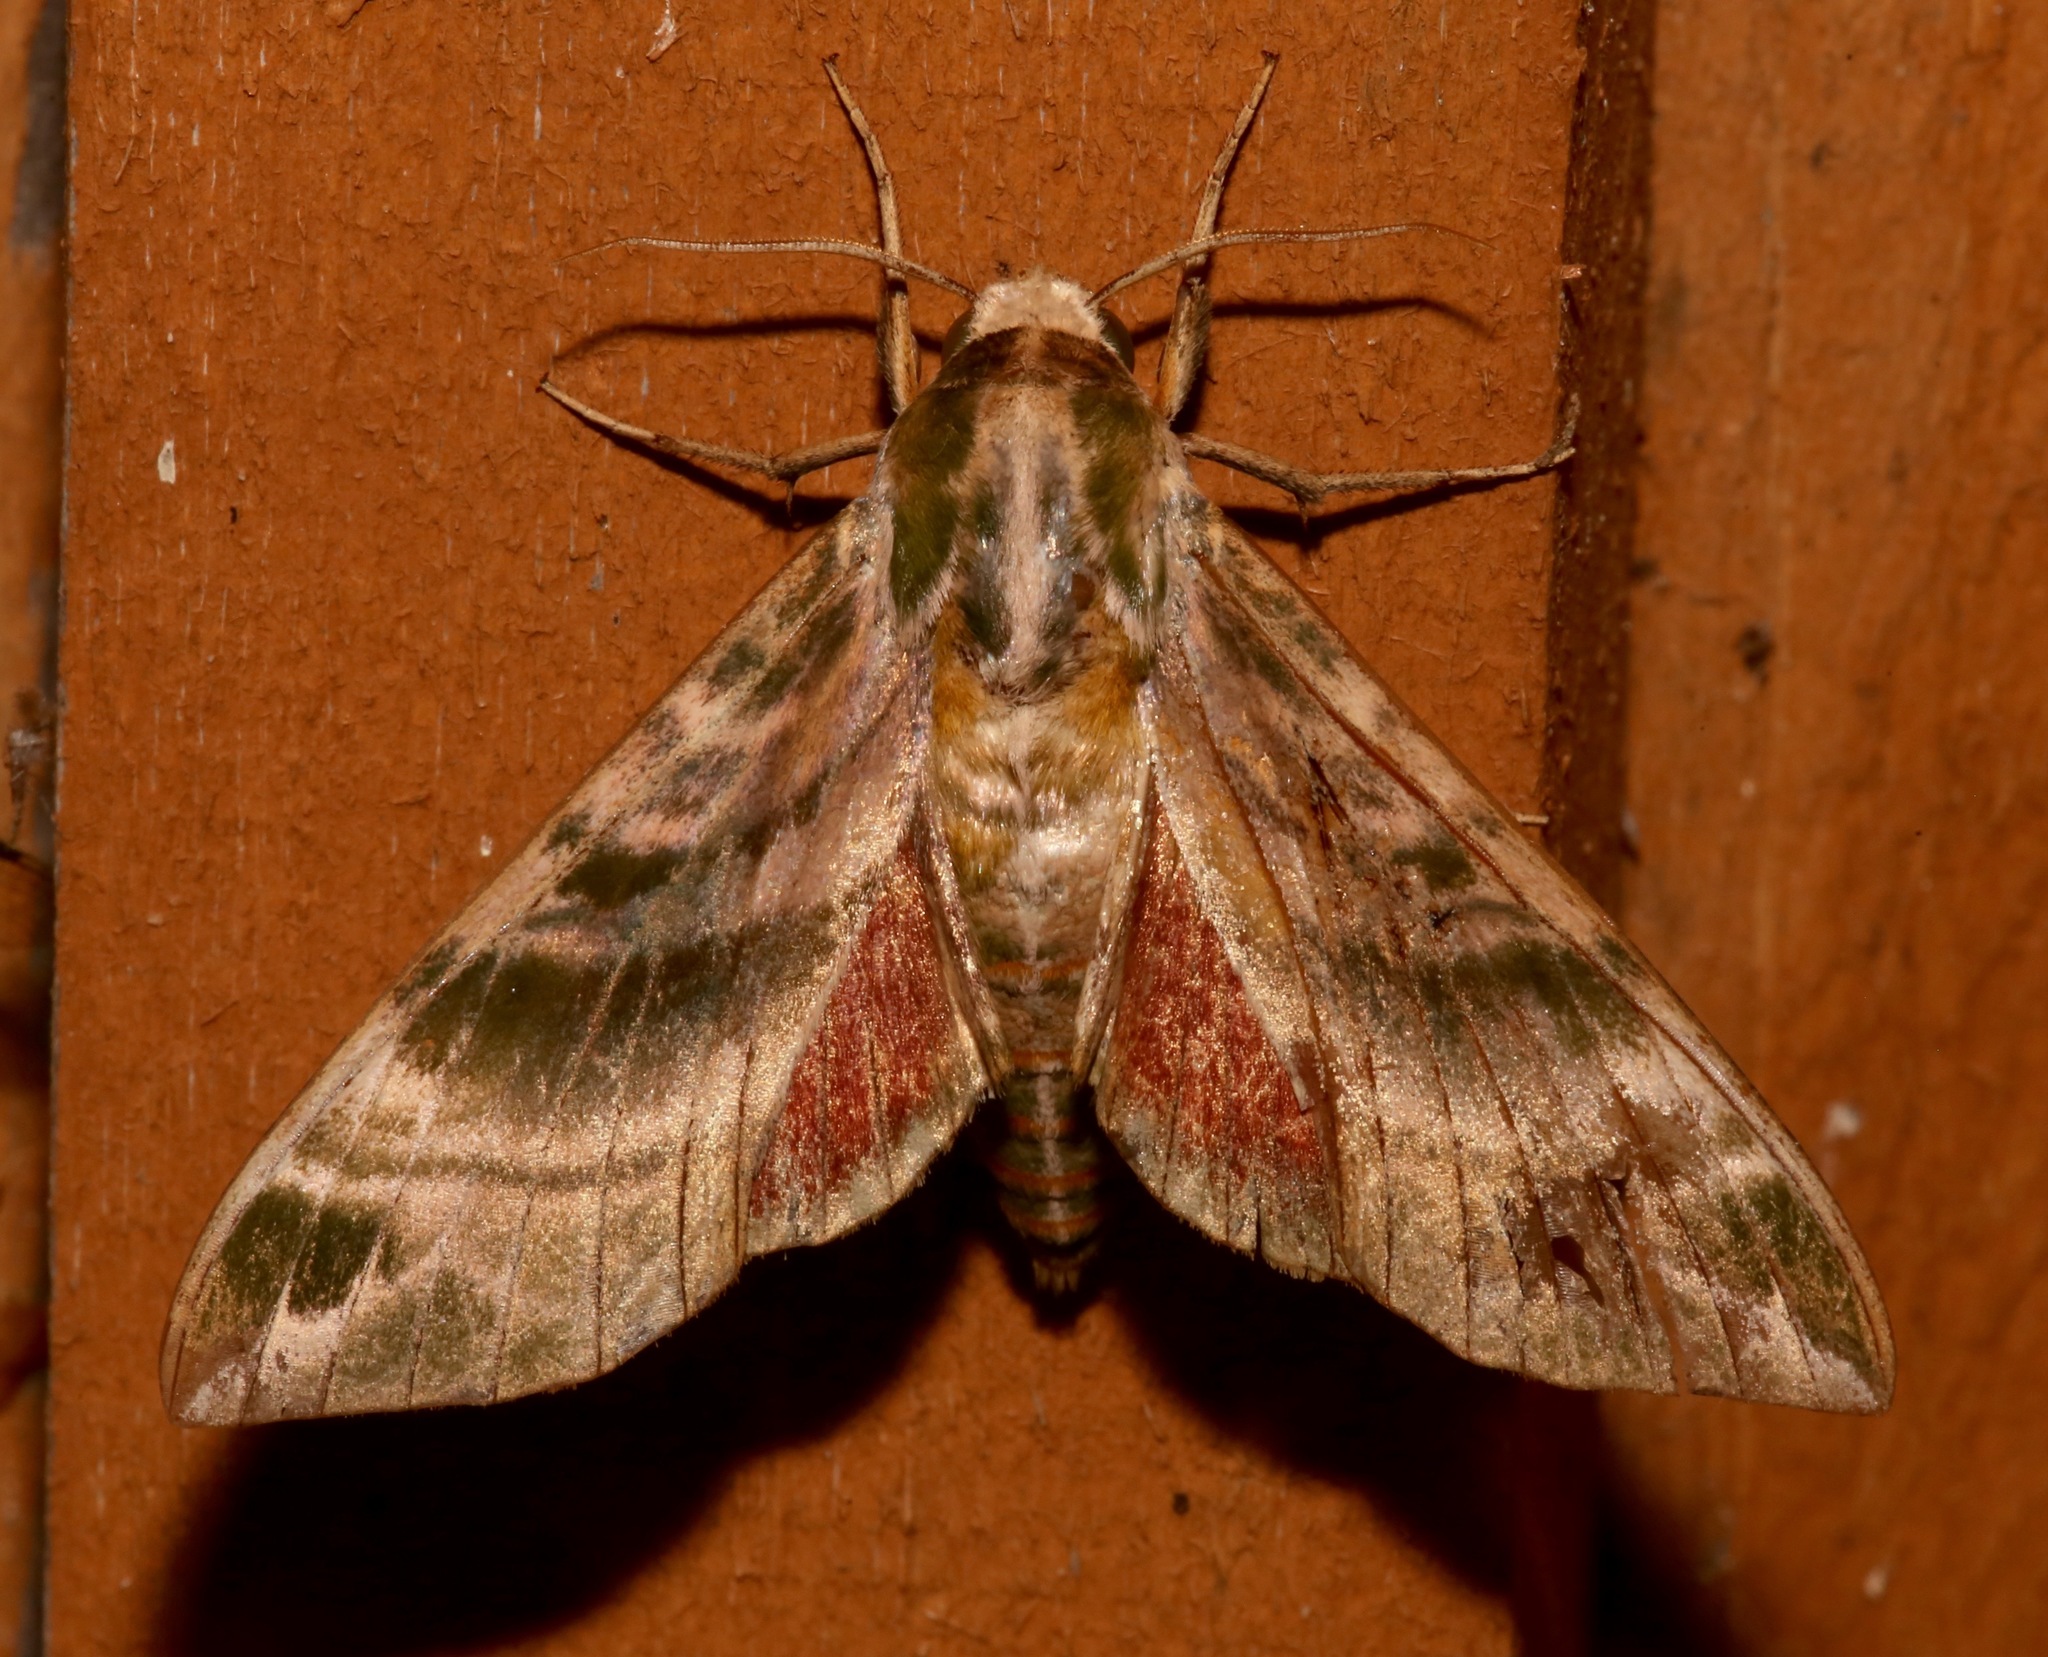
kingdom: Animalia
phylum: Arthropoda
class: Insecta
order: Lepidoptera
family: Sphingidae
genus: Darapsa
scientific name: Darapsa versicolor
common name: Hydrangea sphinx
